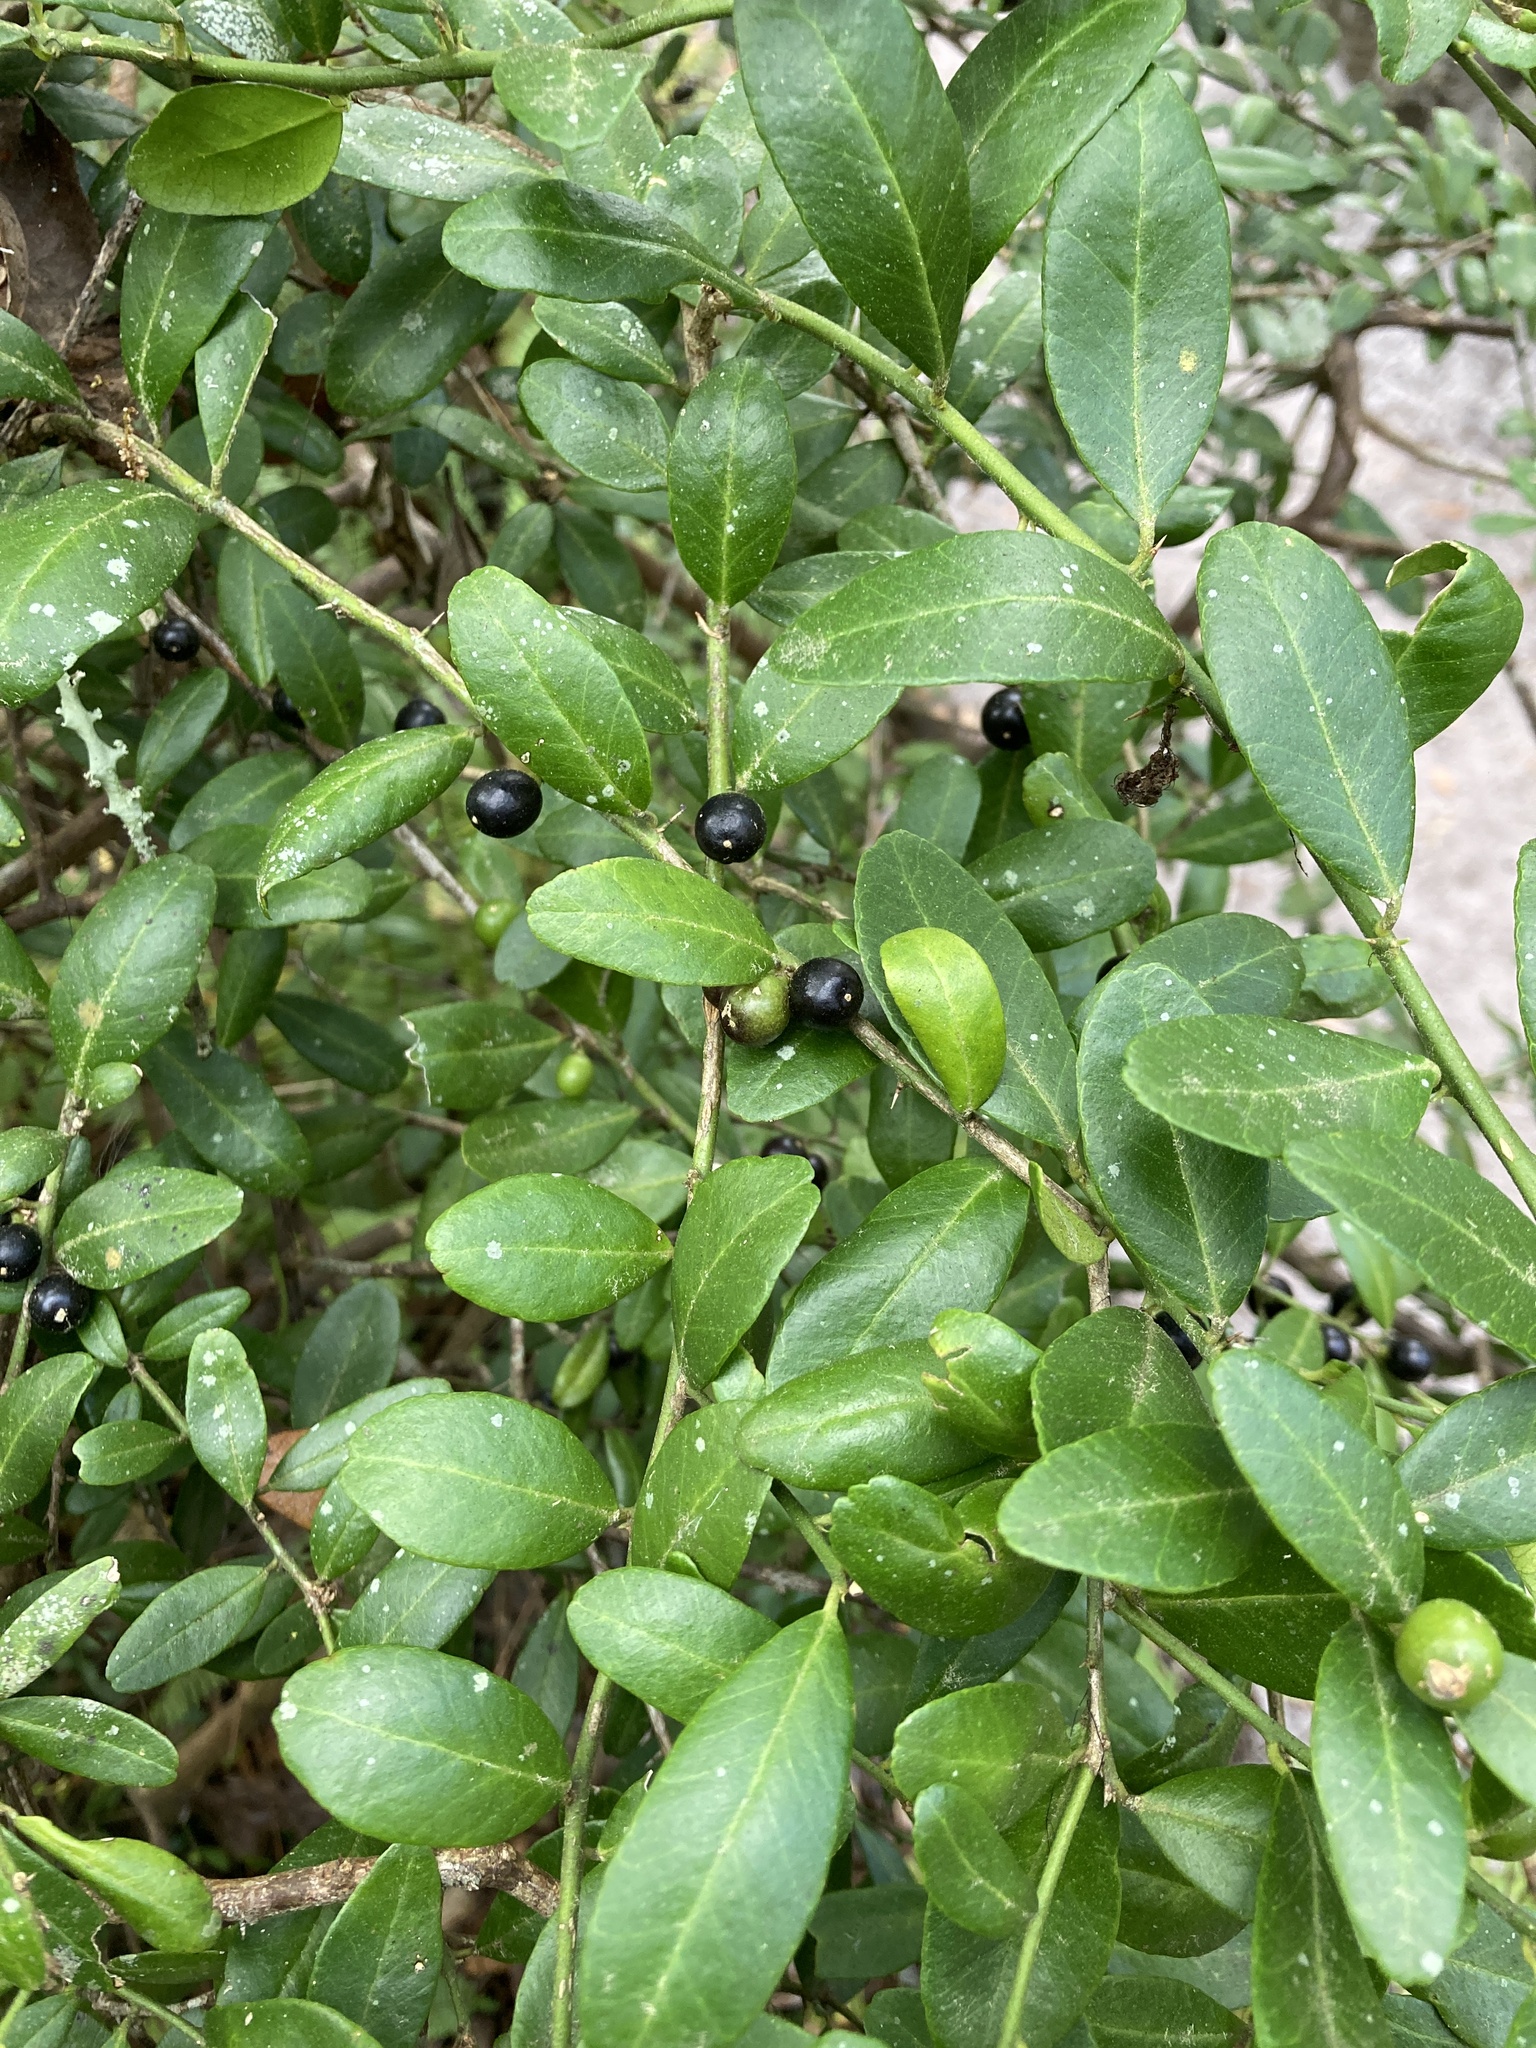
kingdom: Plantae
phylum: Tracheophyta
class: Magnoliopsida
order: Sapindales
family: Rutaceae
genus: Atalantia
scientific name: Atalantia buxifolia
